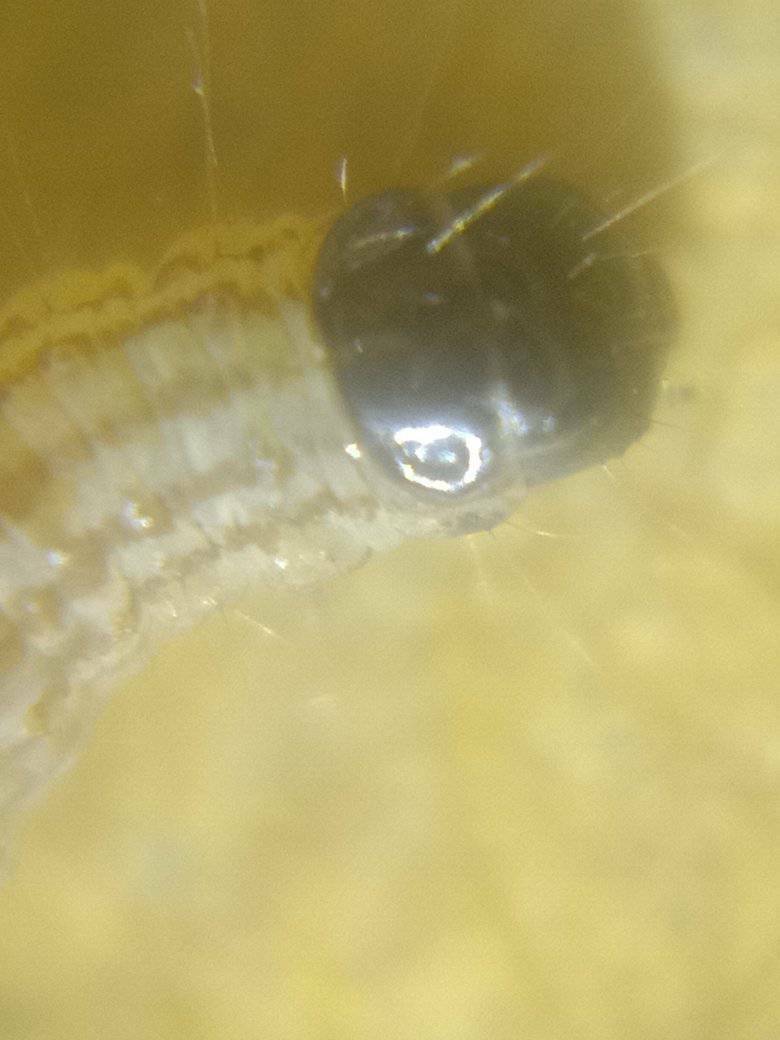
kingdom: Animalia
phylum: Arthropoda
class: Insecta
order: Lepidoptera
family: Crambidae
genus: Hellula
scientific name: Hellula undalis
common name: Cabbage webworm
